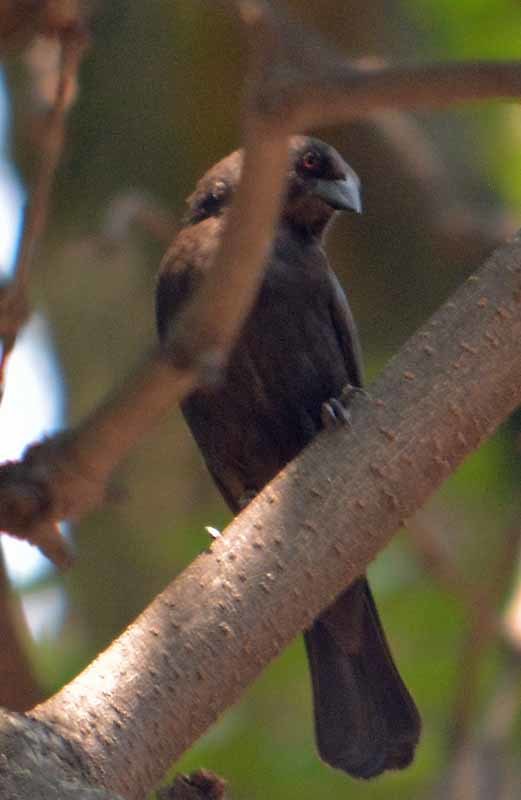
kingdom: Animalia
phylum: Chordata
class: Aves
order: Passeriformes
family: Icteridae
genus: Molothrus
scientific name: Molothrus aeneus
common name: Bronzed cowbird
